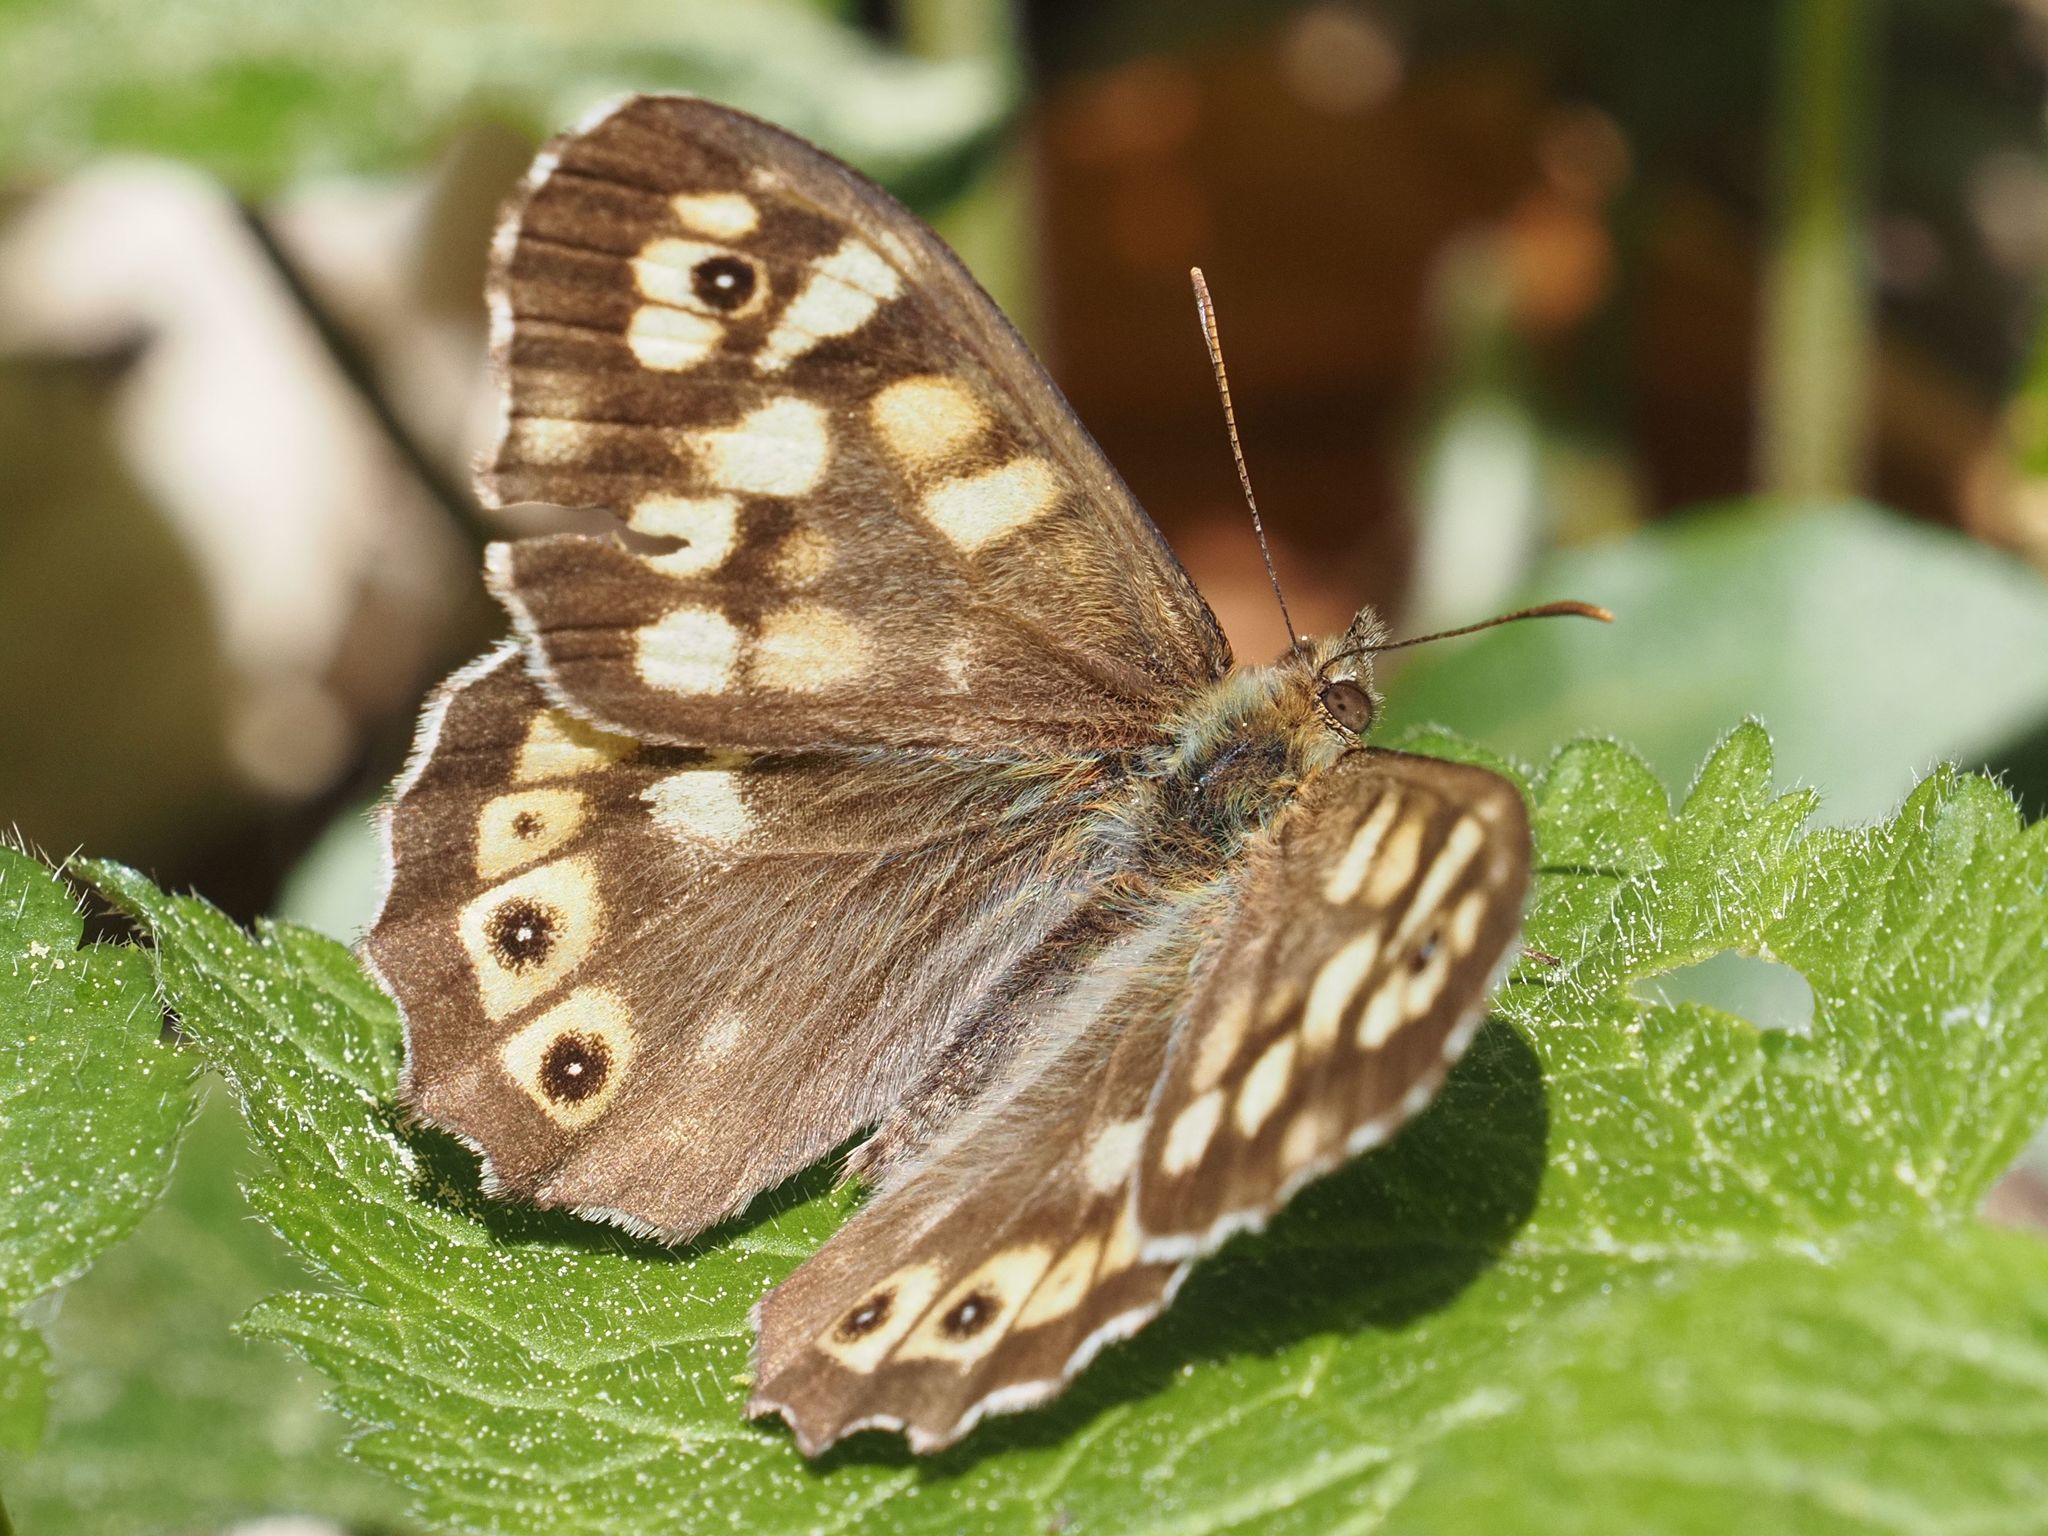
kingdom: Animalia
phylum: Arthropoda
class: Insecta
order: Lepidoptera
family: Nymphalidae
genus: Pararge
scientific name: Pararge aegeria
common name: Speckled wood
